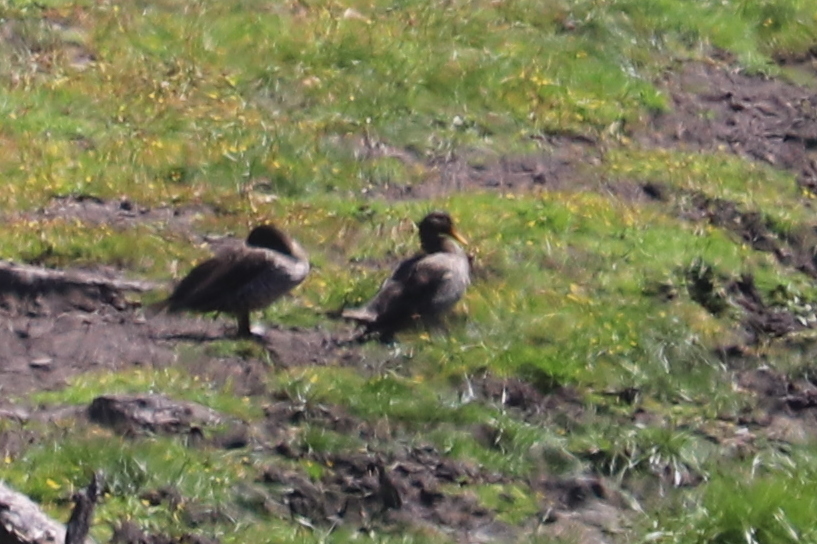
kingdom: Animalia
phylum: Chordata
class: Aves
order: Anseriformes
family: Anatidae
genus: Anas
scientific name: Anas undulata
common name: Yellow-billed duck
